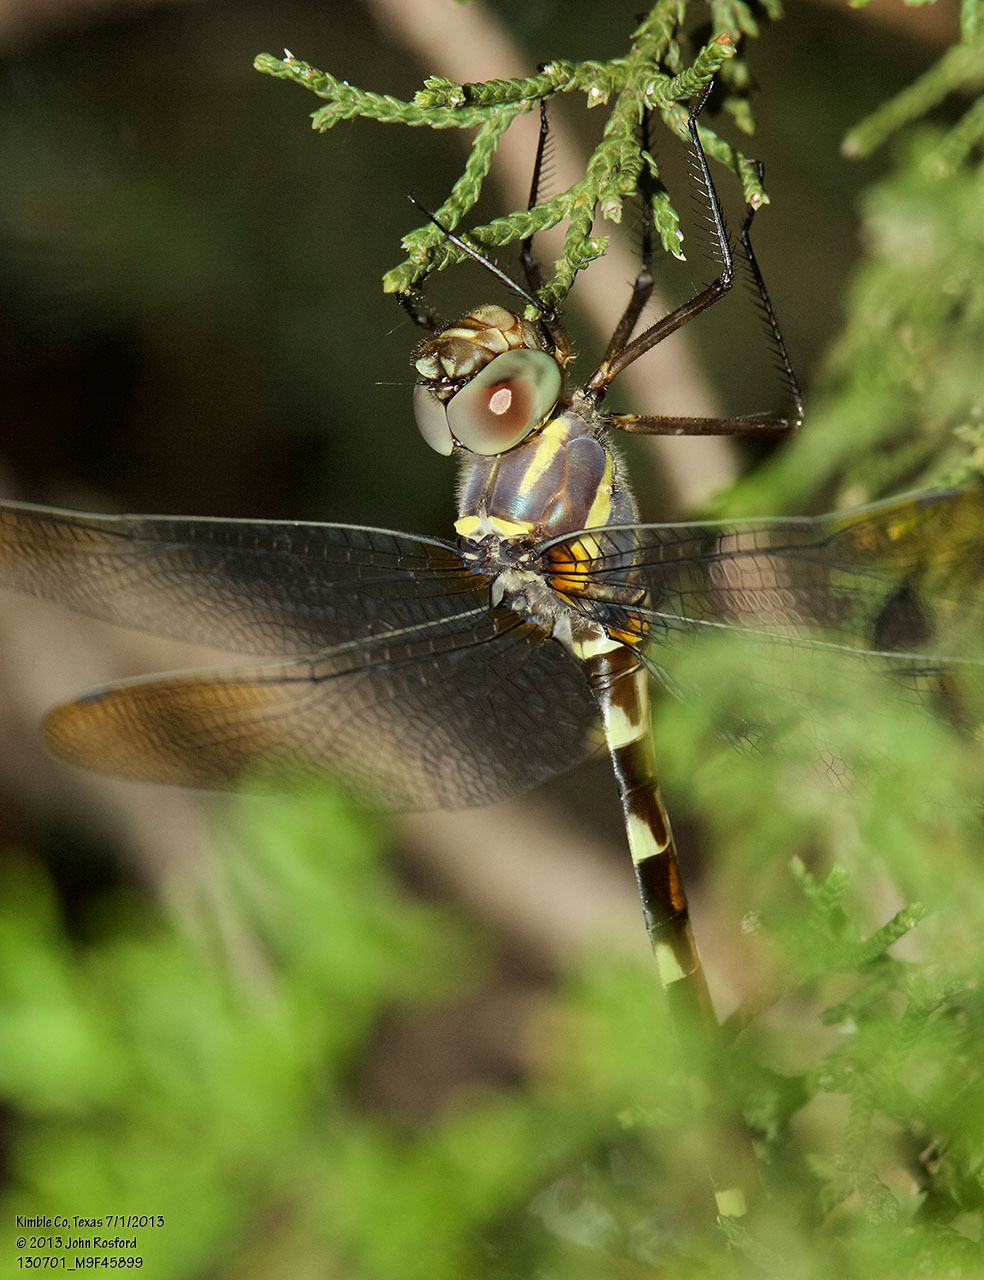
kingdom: Animalia
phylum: Arthropoda
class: Insecta
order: Odonata
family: Macromiidae
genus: Macromia
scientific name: Macromia annulata
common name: Bronzed river cruiser
